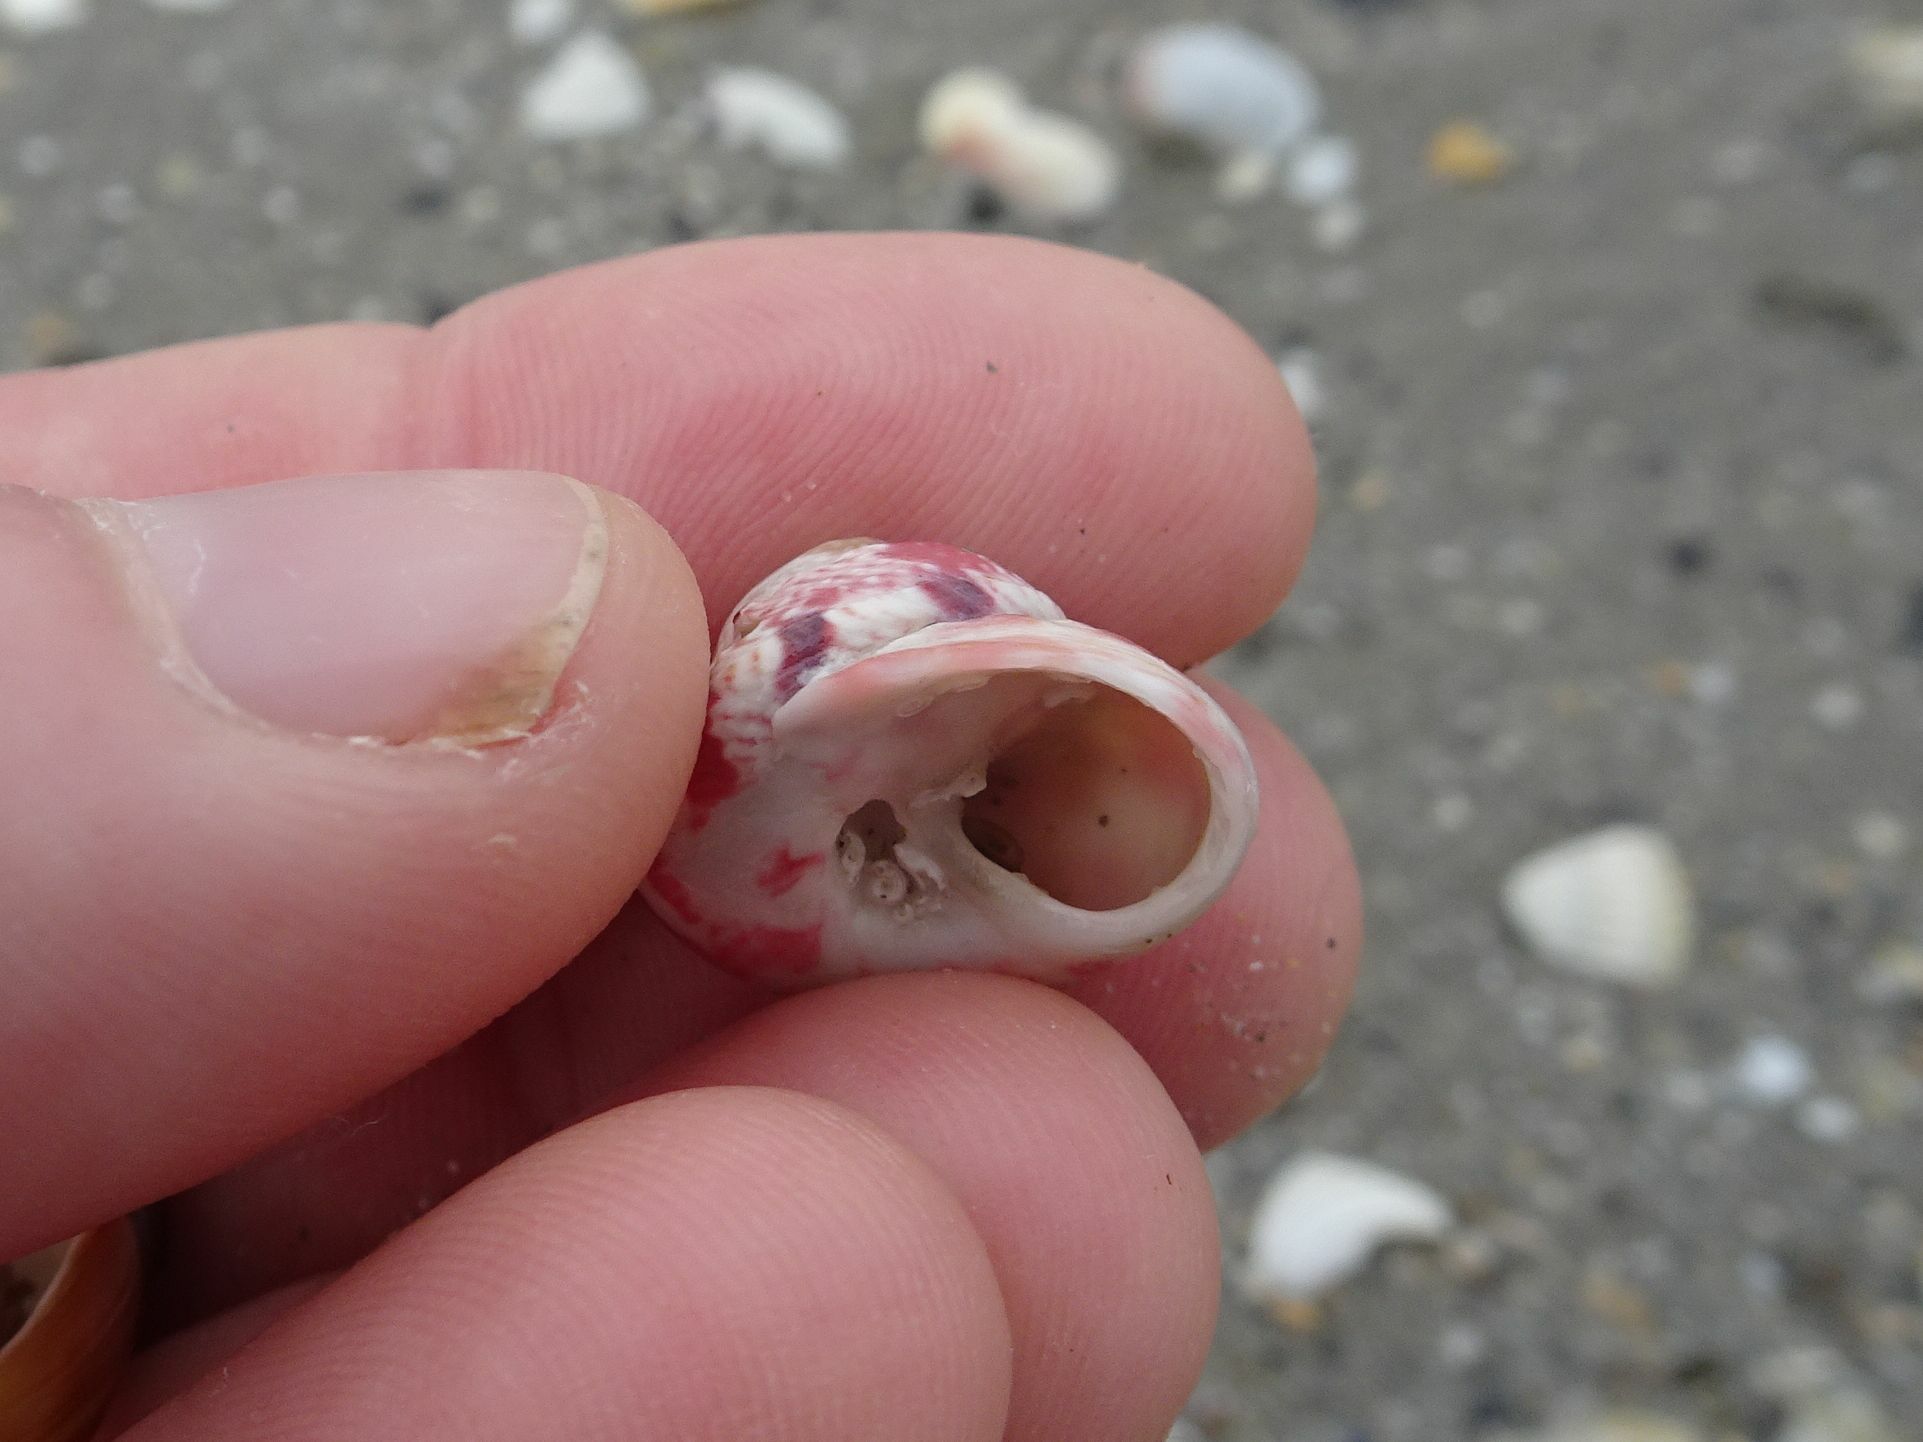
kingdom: Animalia
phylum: Mollusca
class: Gastropoda
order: Trochida
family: Trochidae
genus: Gibbula
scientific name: Gibbula magus
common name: Turban top shell
